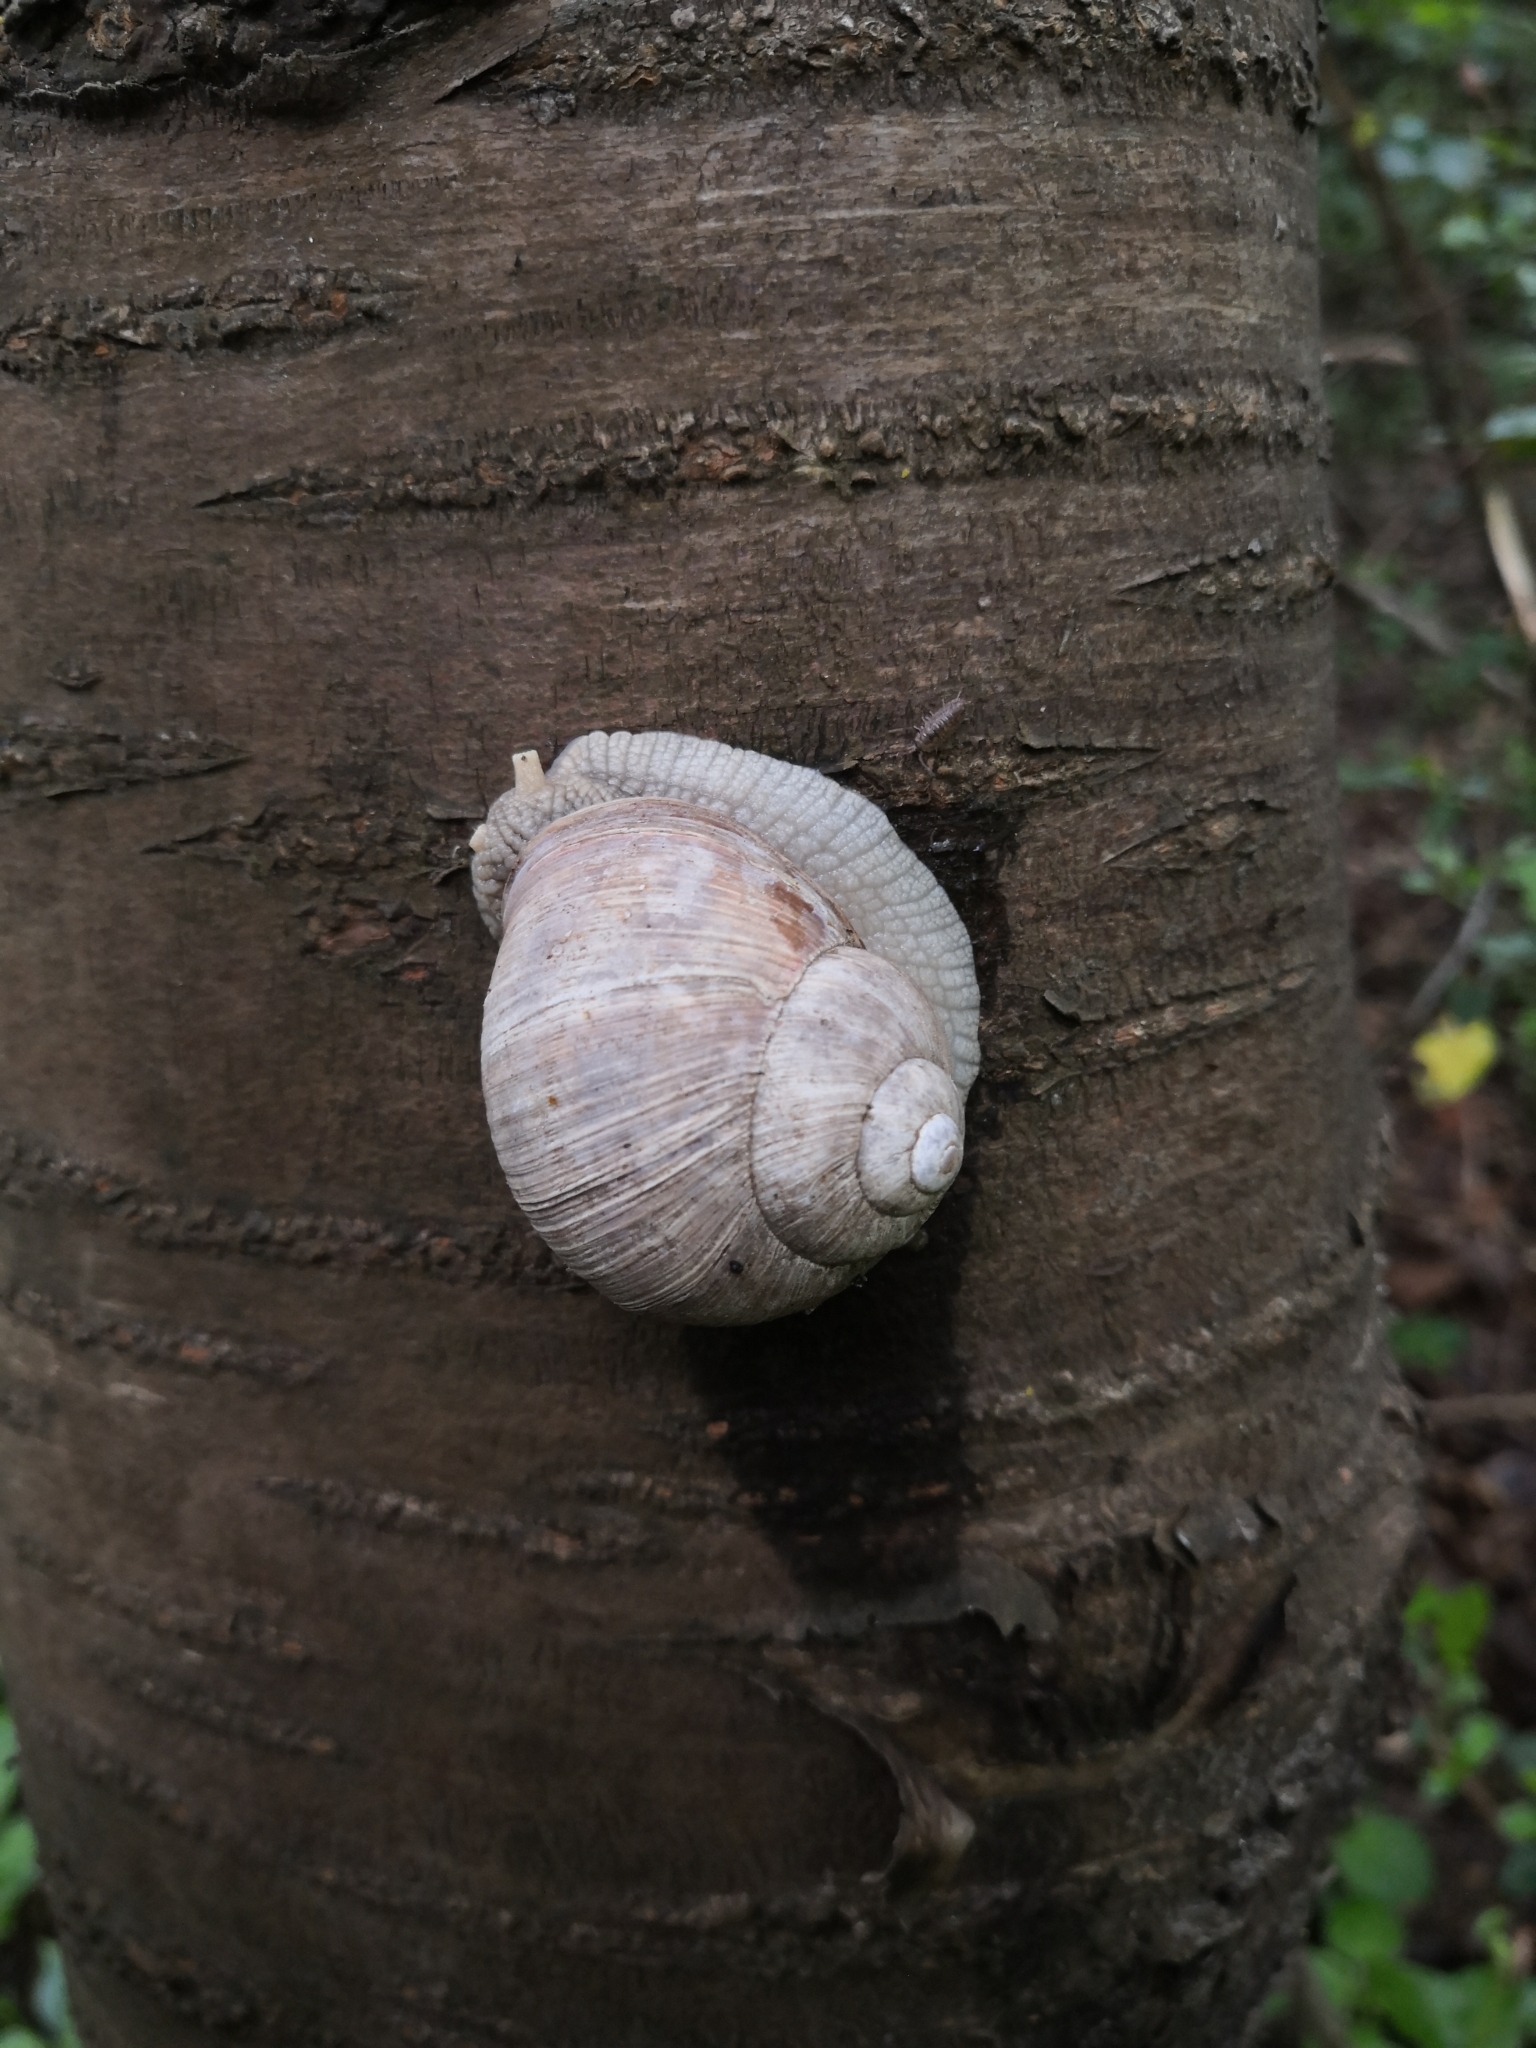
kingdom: Animalia
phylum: Mollusca
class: Gastropoda
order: Stylommatophora
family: Helicidae
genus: Helix
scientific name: Helix pomatia
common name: Roman snail
